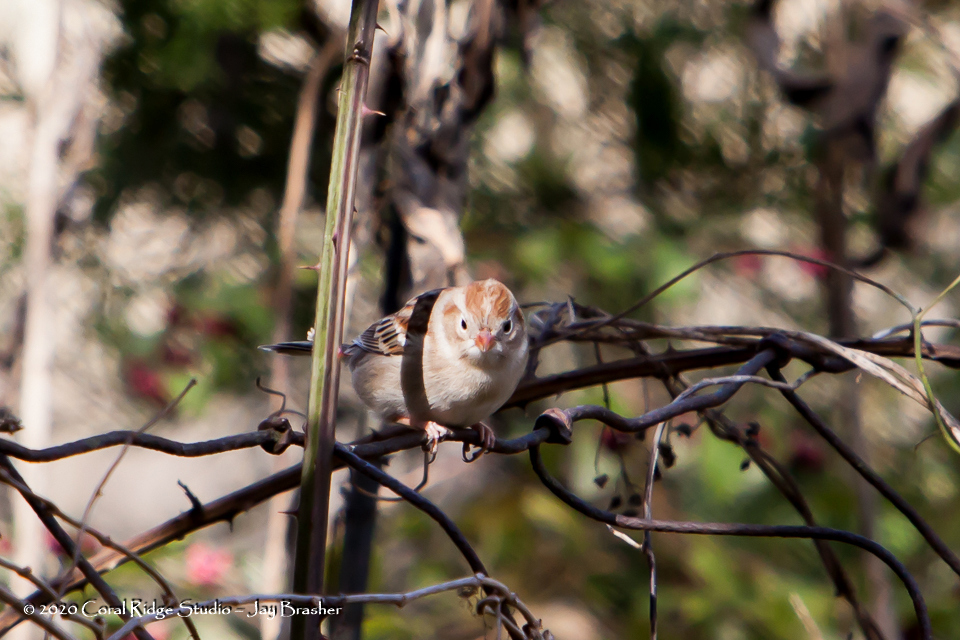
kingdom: Animalia
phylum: Chordata
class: Aves
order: Passeriformes
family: Passerellidae
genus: Spizella
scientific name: Spizella pusilla
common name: Field sparrow
